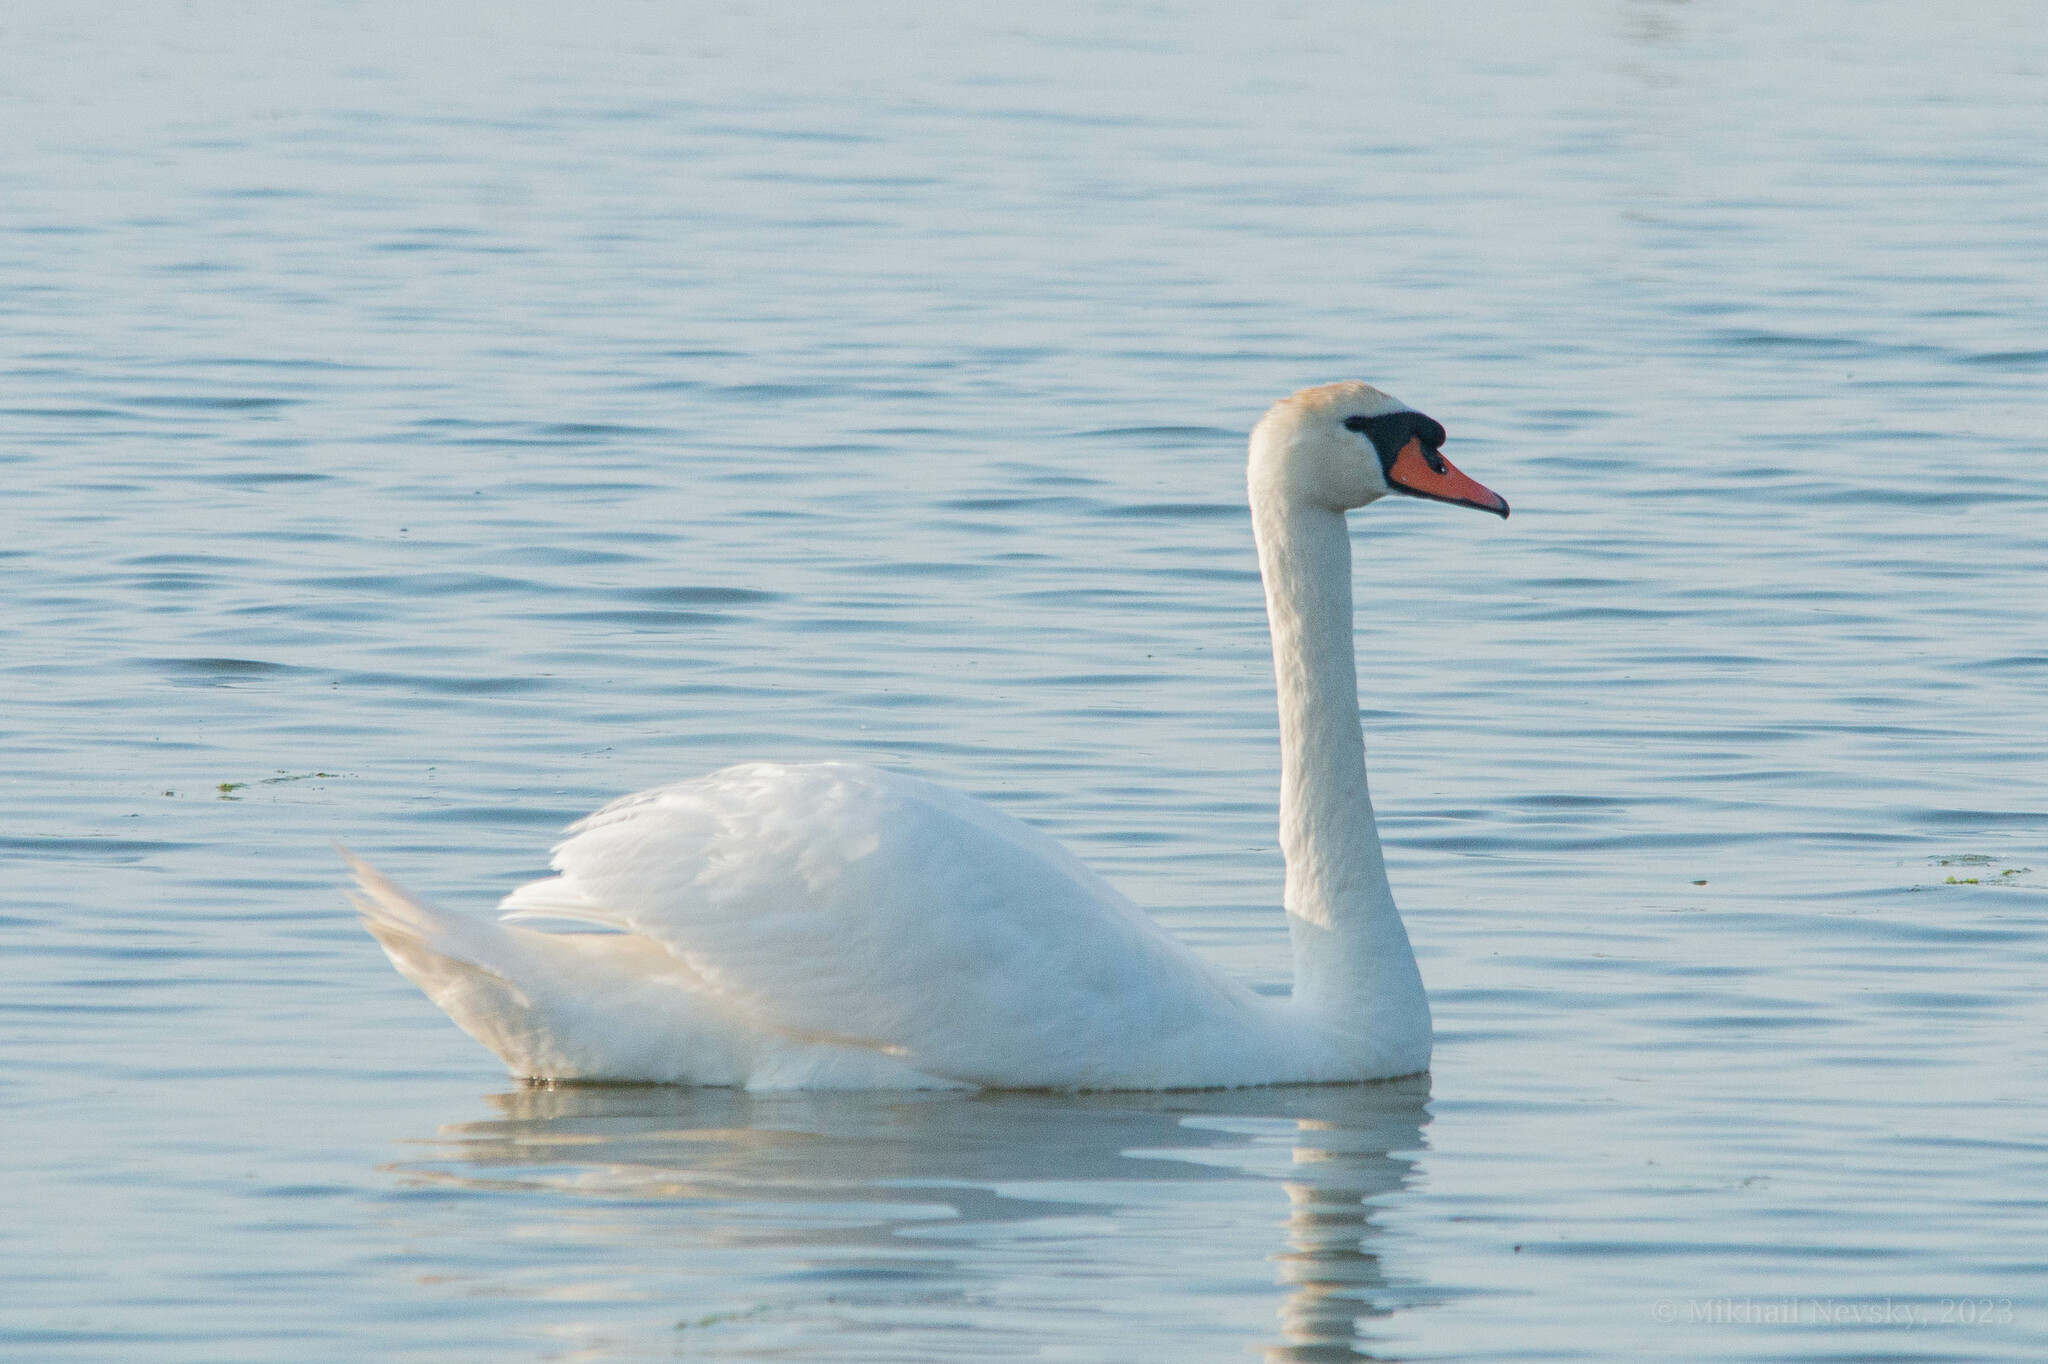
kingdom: Animalia
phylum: Chordata
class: Aves
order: Anseriformes
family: Anatidae
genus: Cygnus
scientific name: Cygnus olor
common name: Mute swan
